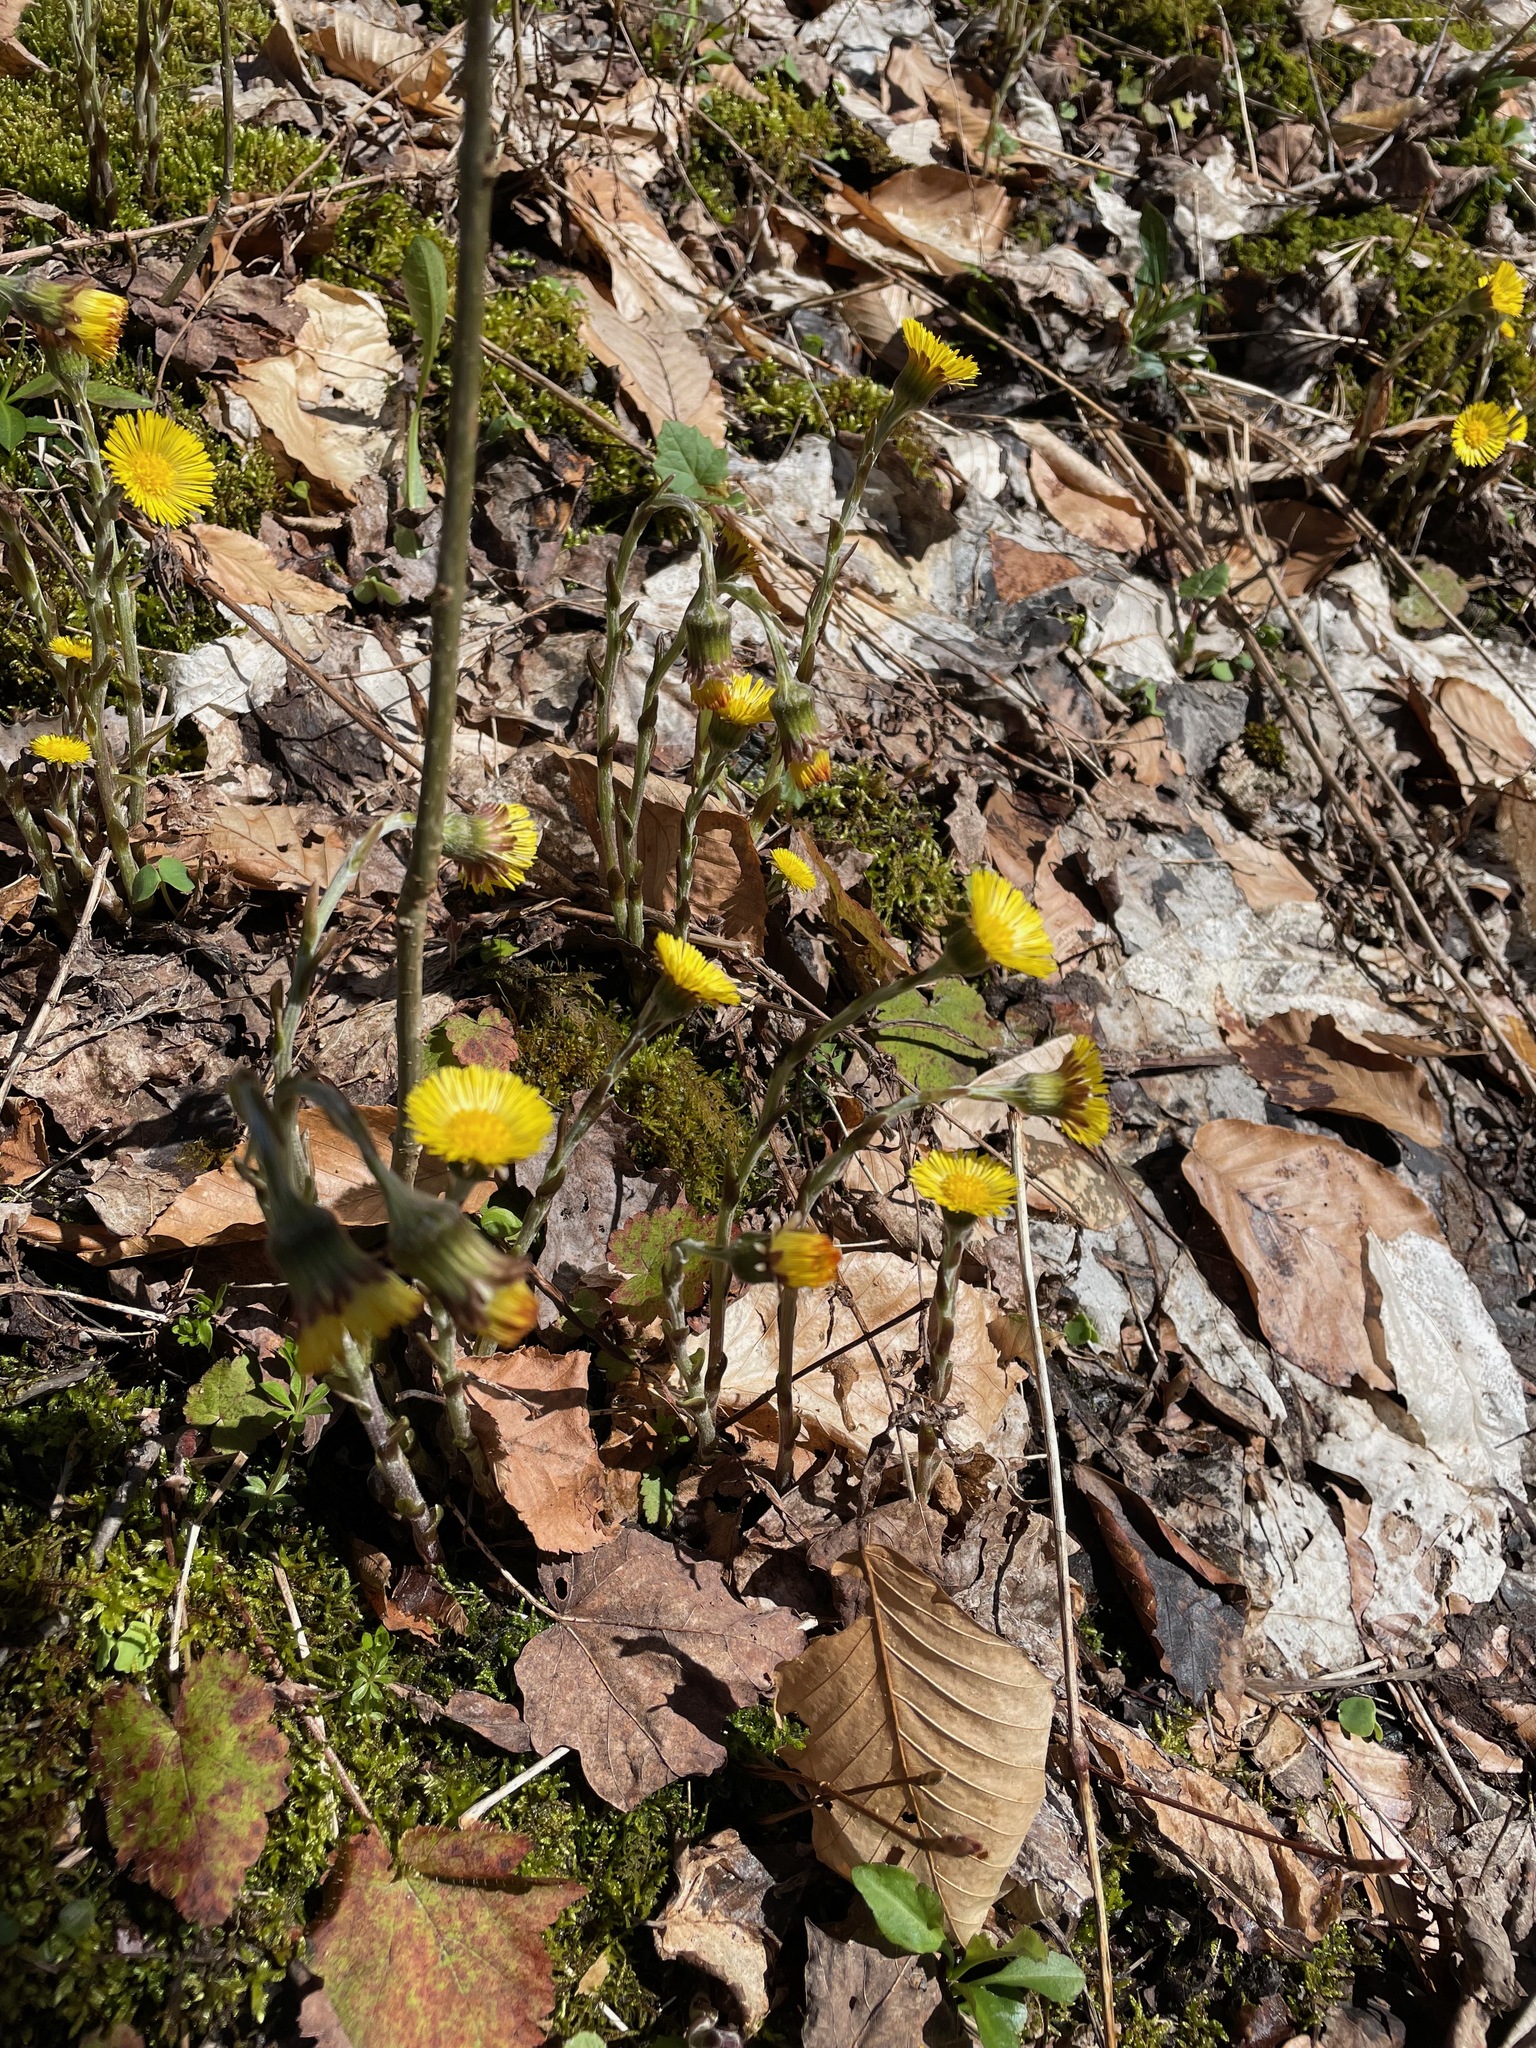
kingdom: Plantae
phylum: Tracheophyta
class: Magnoliopsida
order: Asterales
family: Asteraceae
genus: Tussilago
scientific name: Tussilago farfara
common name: Coltsfoot
